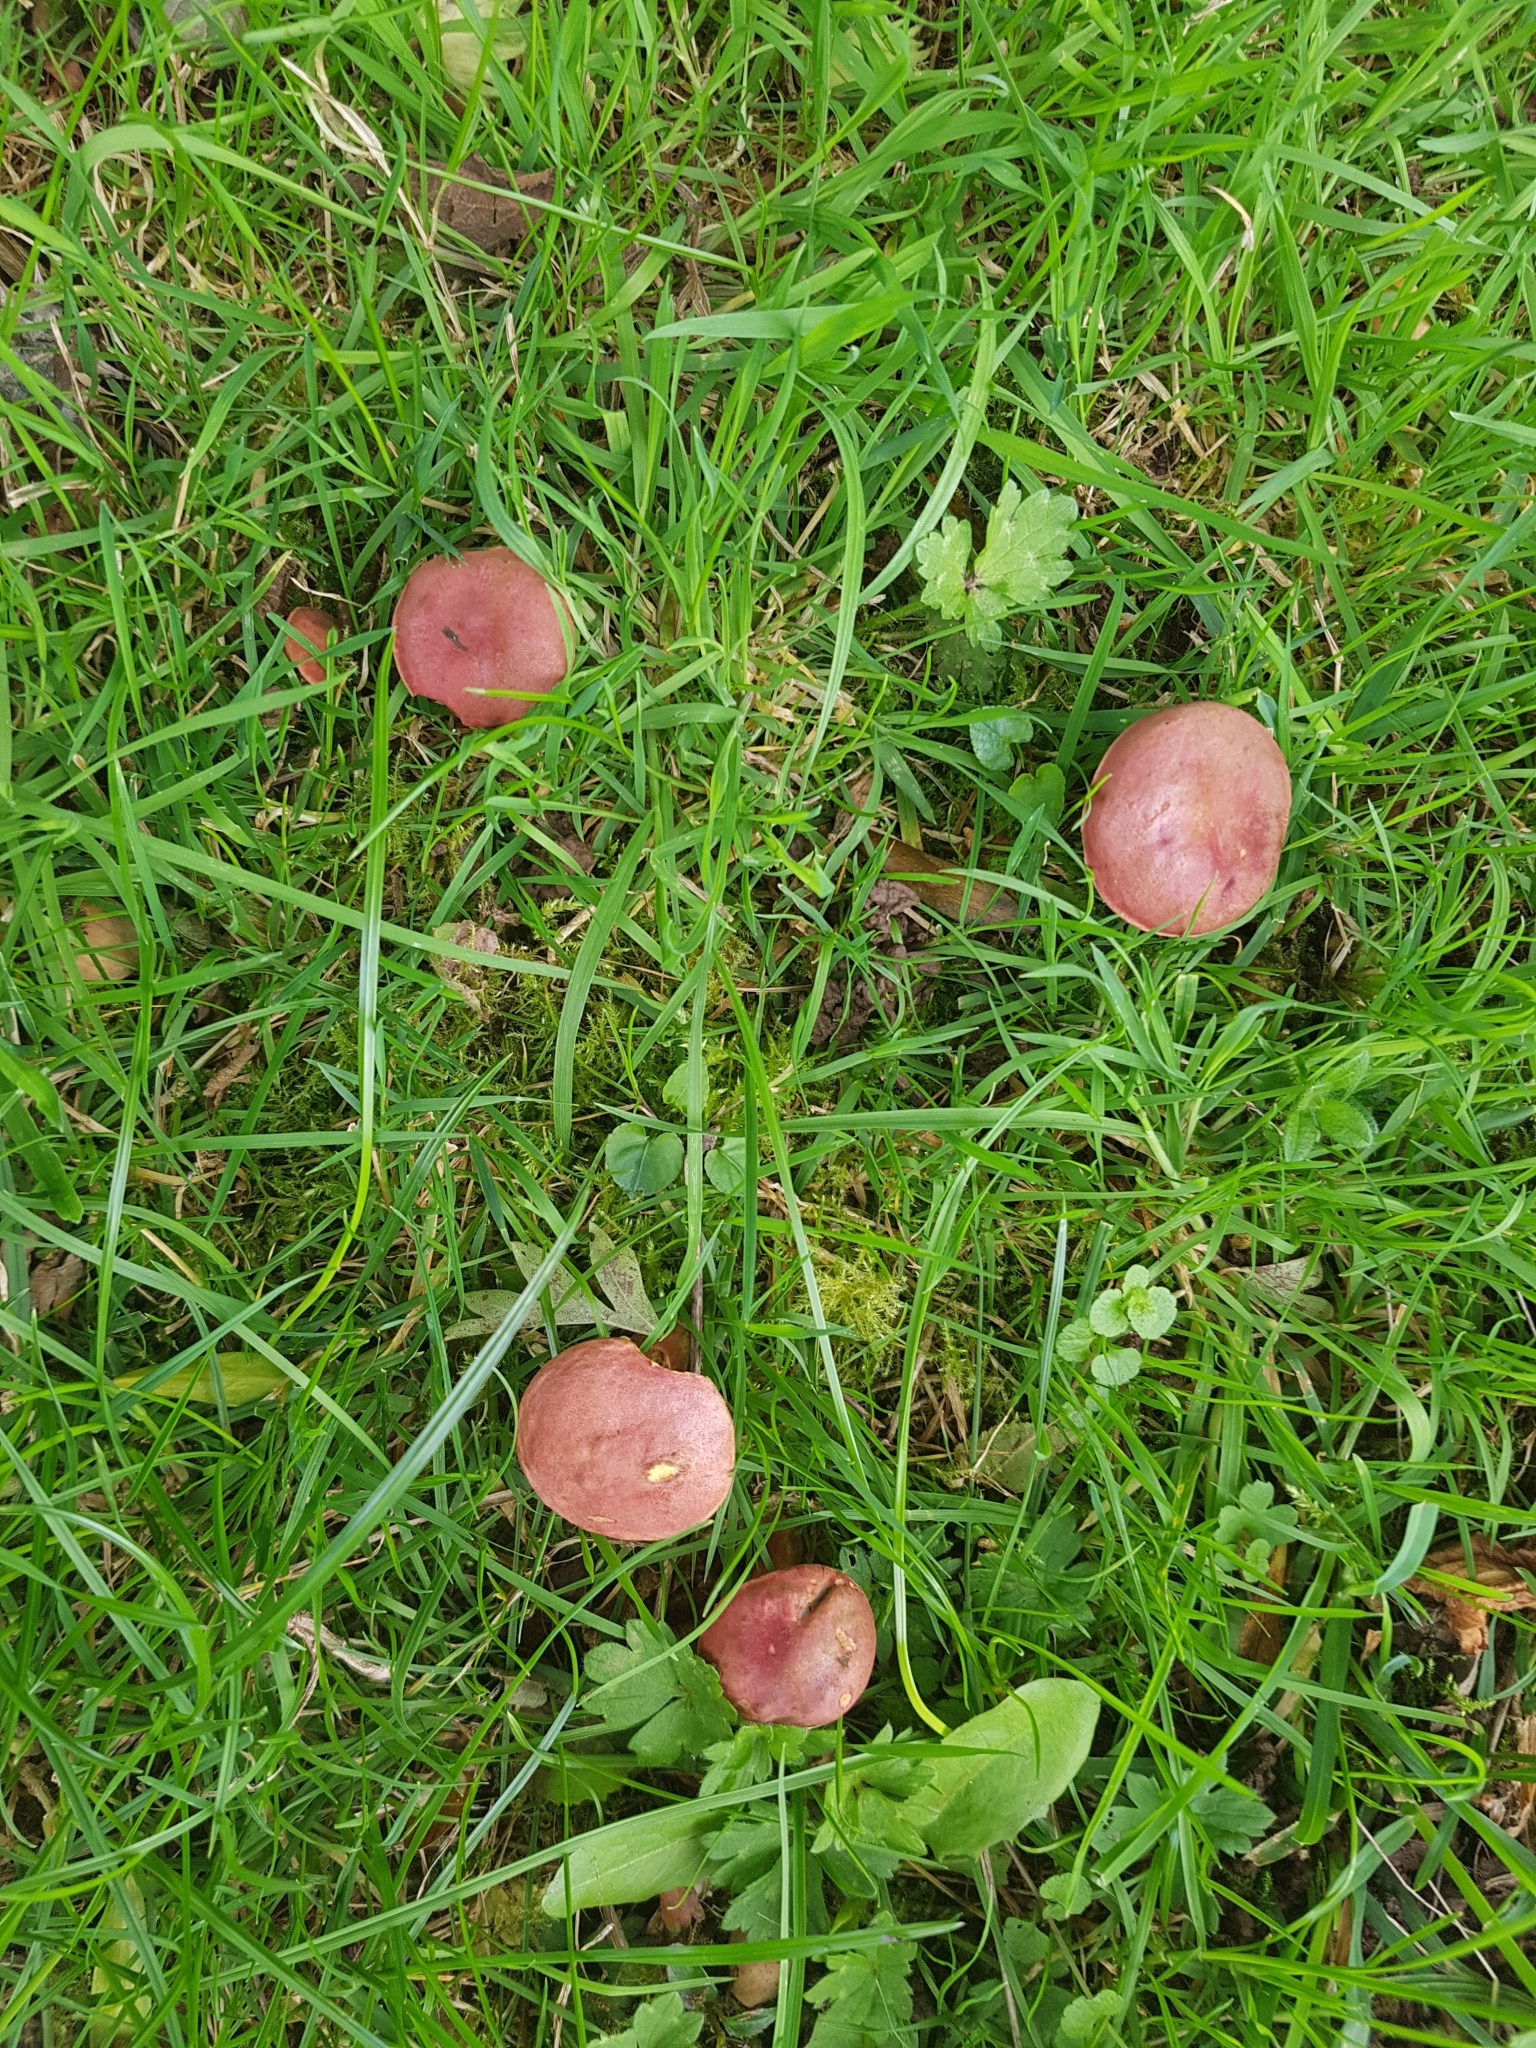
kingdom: Fungi
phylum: Basidiomycota
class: Agaricomycetes
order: Boletales
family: Boletaceae
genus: Hortiboletus
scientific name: Hortiboletus rubellus
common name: Ruby bolete
